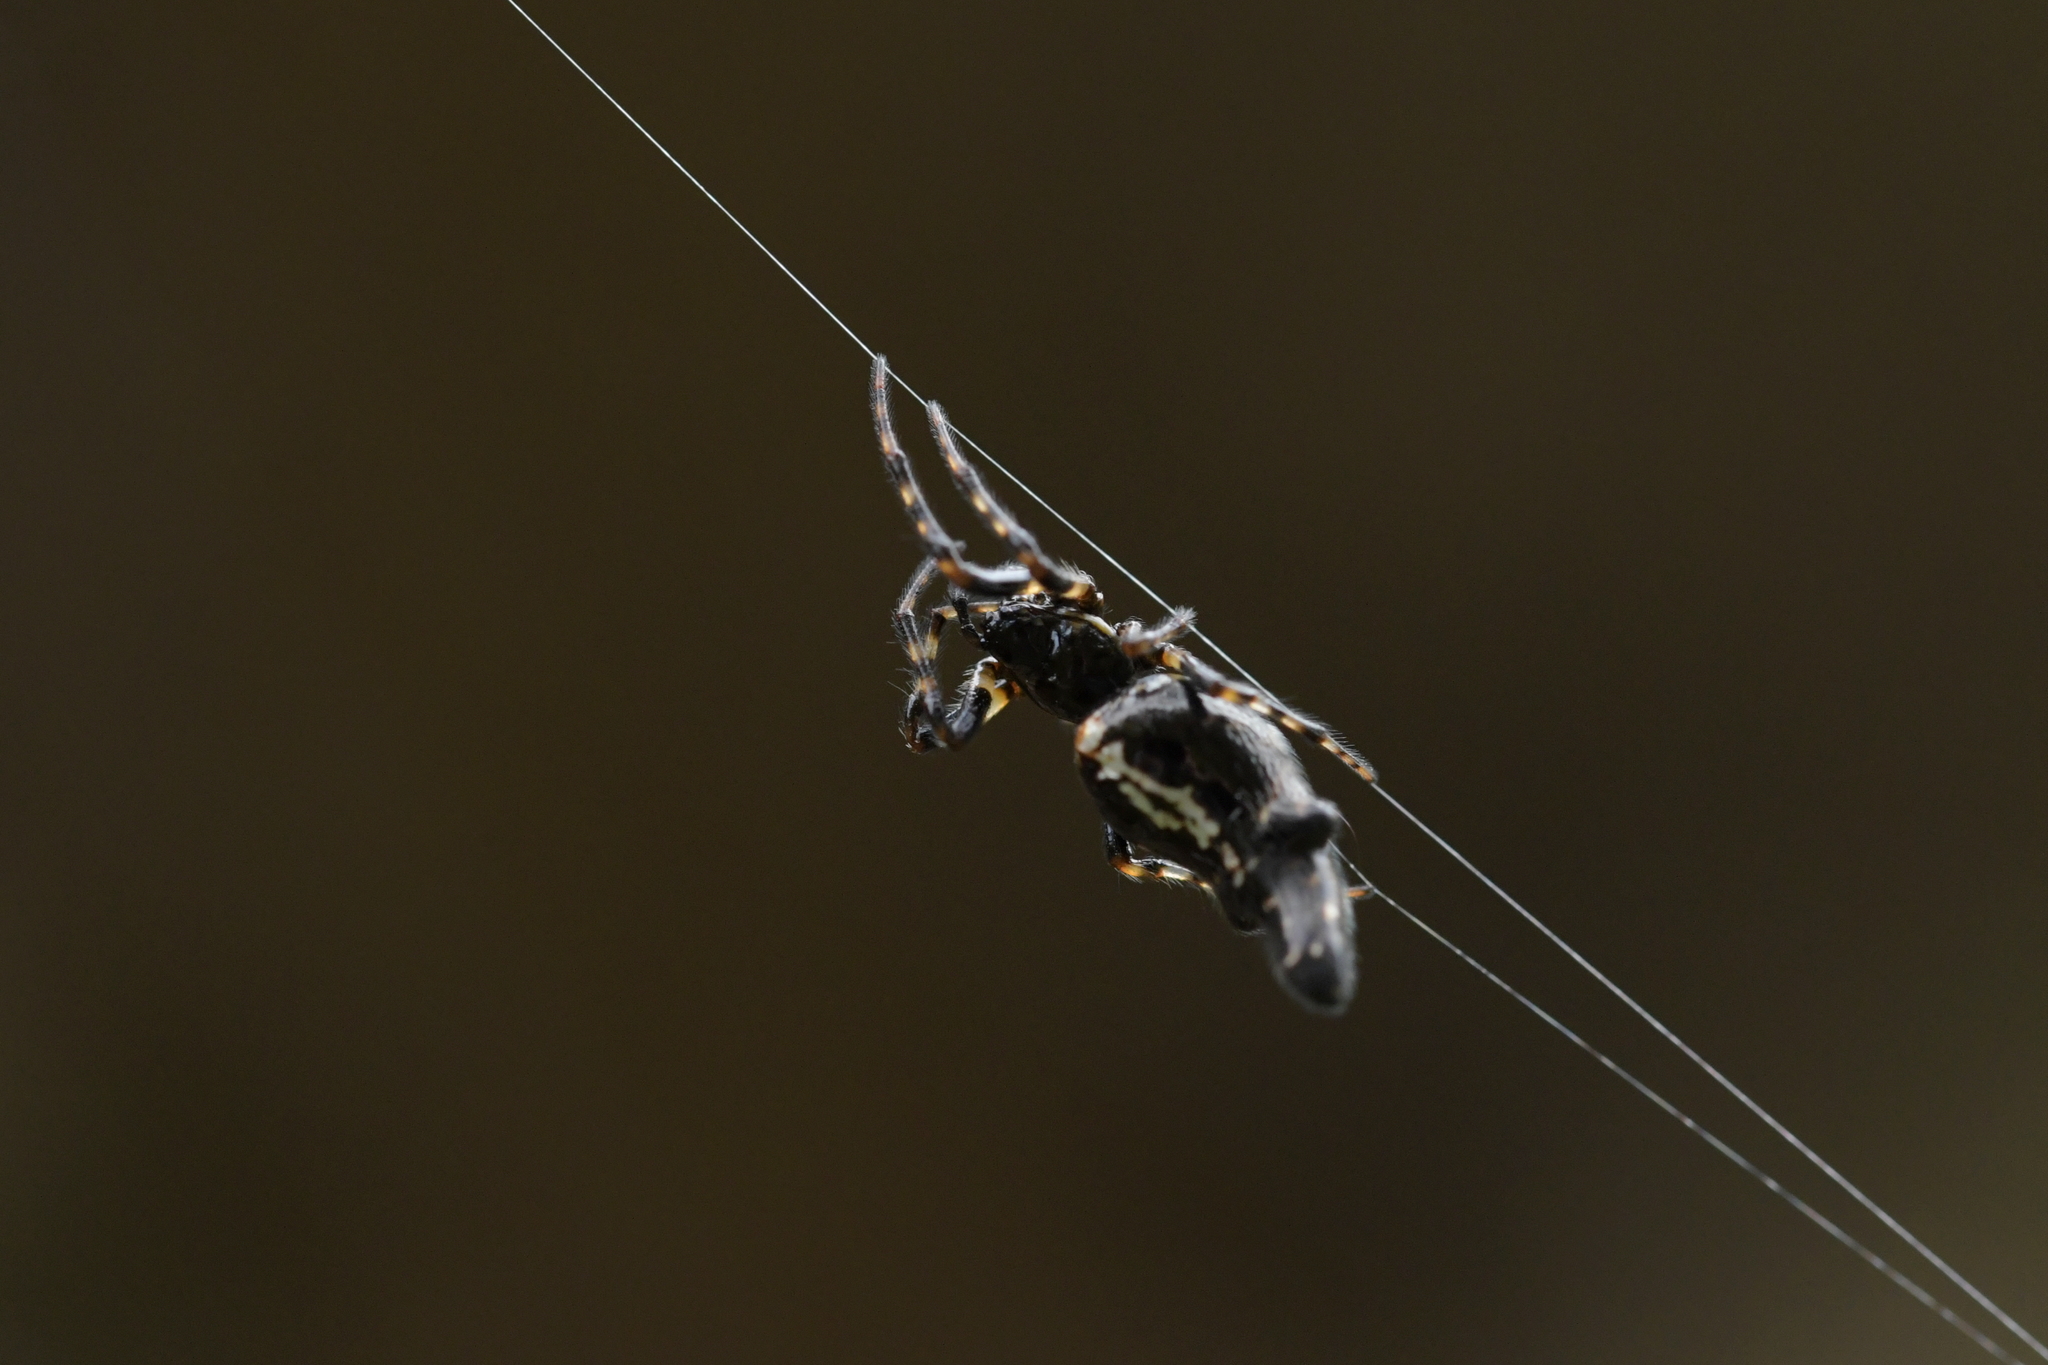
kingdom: Animalia
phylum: Arthropoda
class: Arachnida
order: Araneae
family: Araneidae
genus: Cyclosa
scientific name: Cyclosa trilobata
